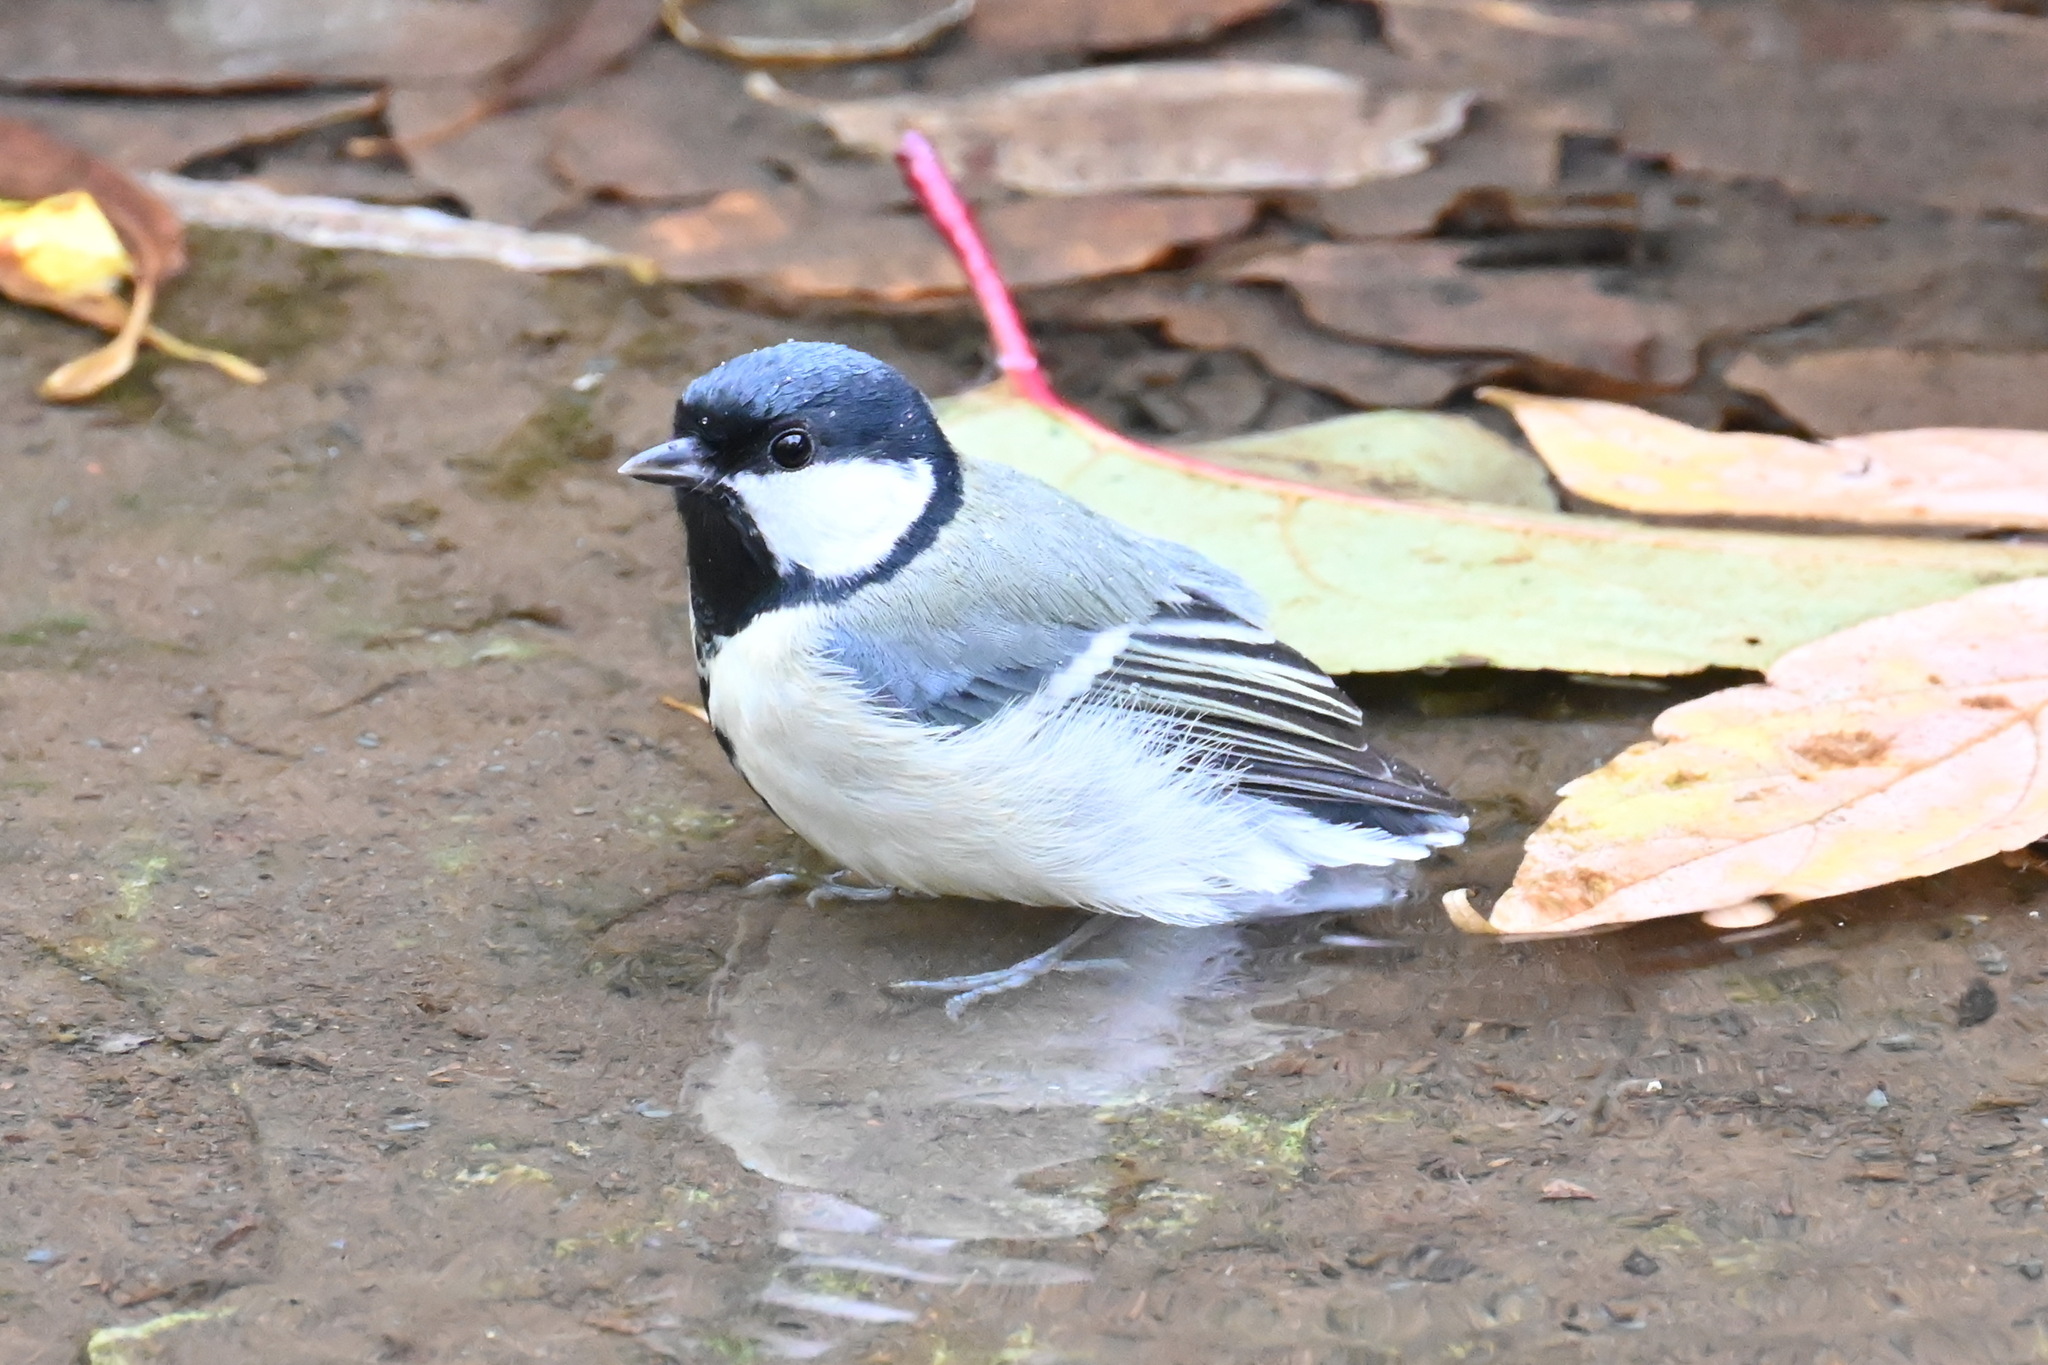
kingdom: Animalia
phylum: Chordata
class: Aves
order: Passeriformes
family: Paridae
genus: Parus
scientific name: Parus major
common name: Great tit
